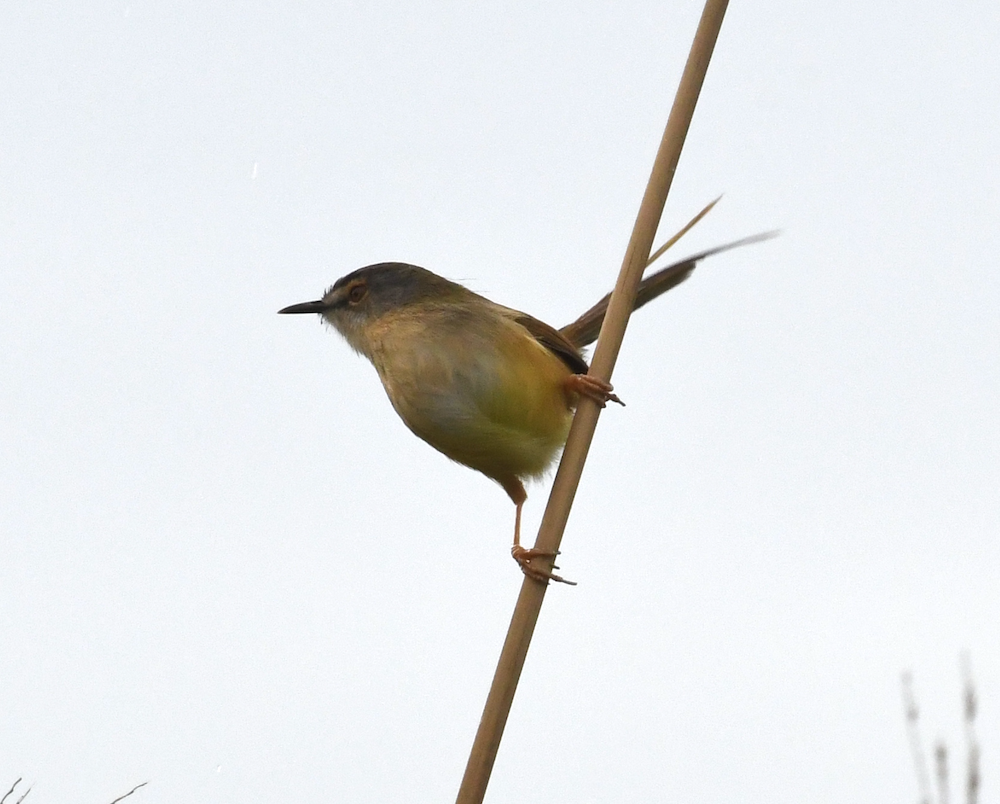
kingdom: Animalia
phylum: Chordata
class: Aves
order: Passeriformes
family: Cisticolidae
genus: Prinia
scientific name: Prinia flaviventris
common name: Yellow-bellied prinia
